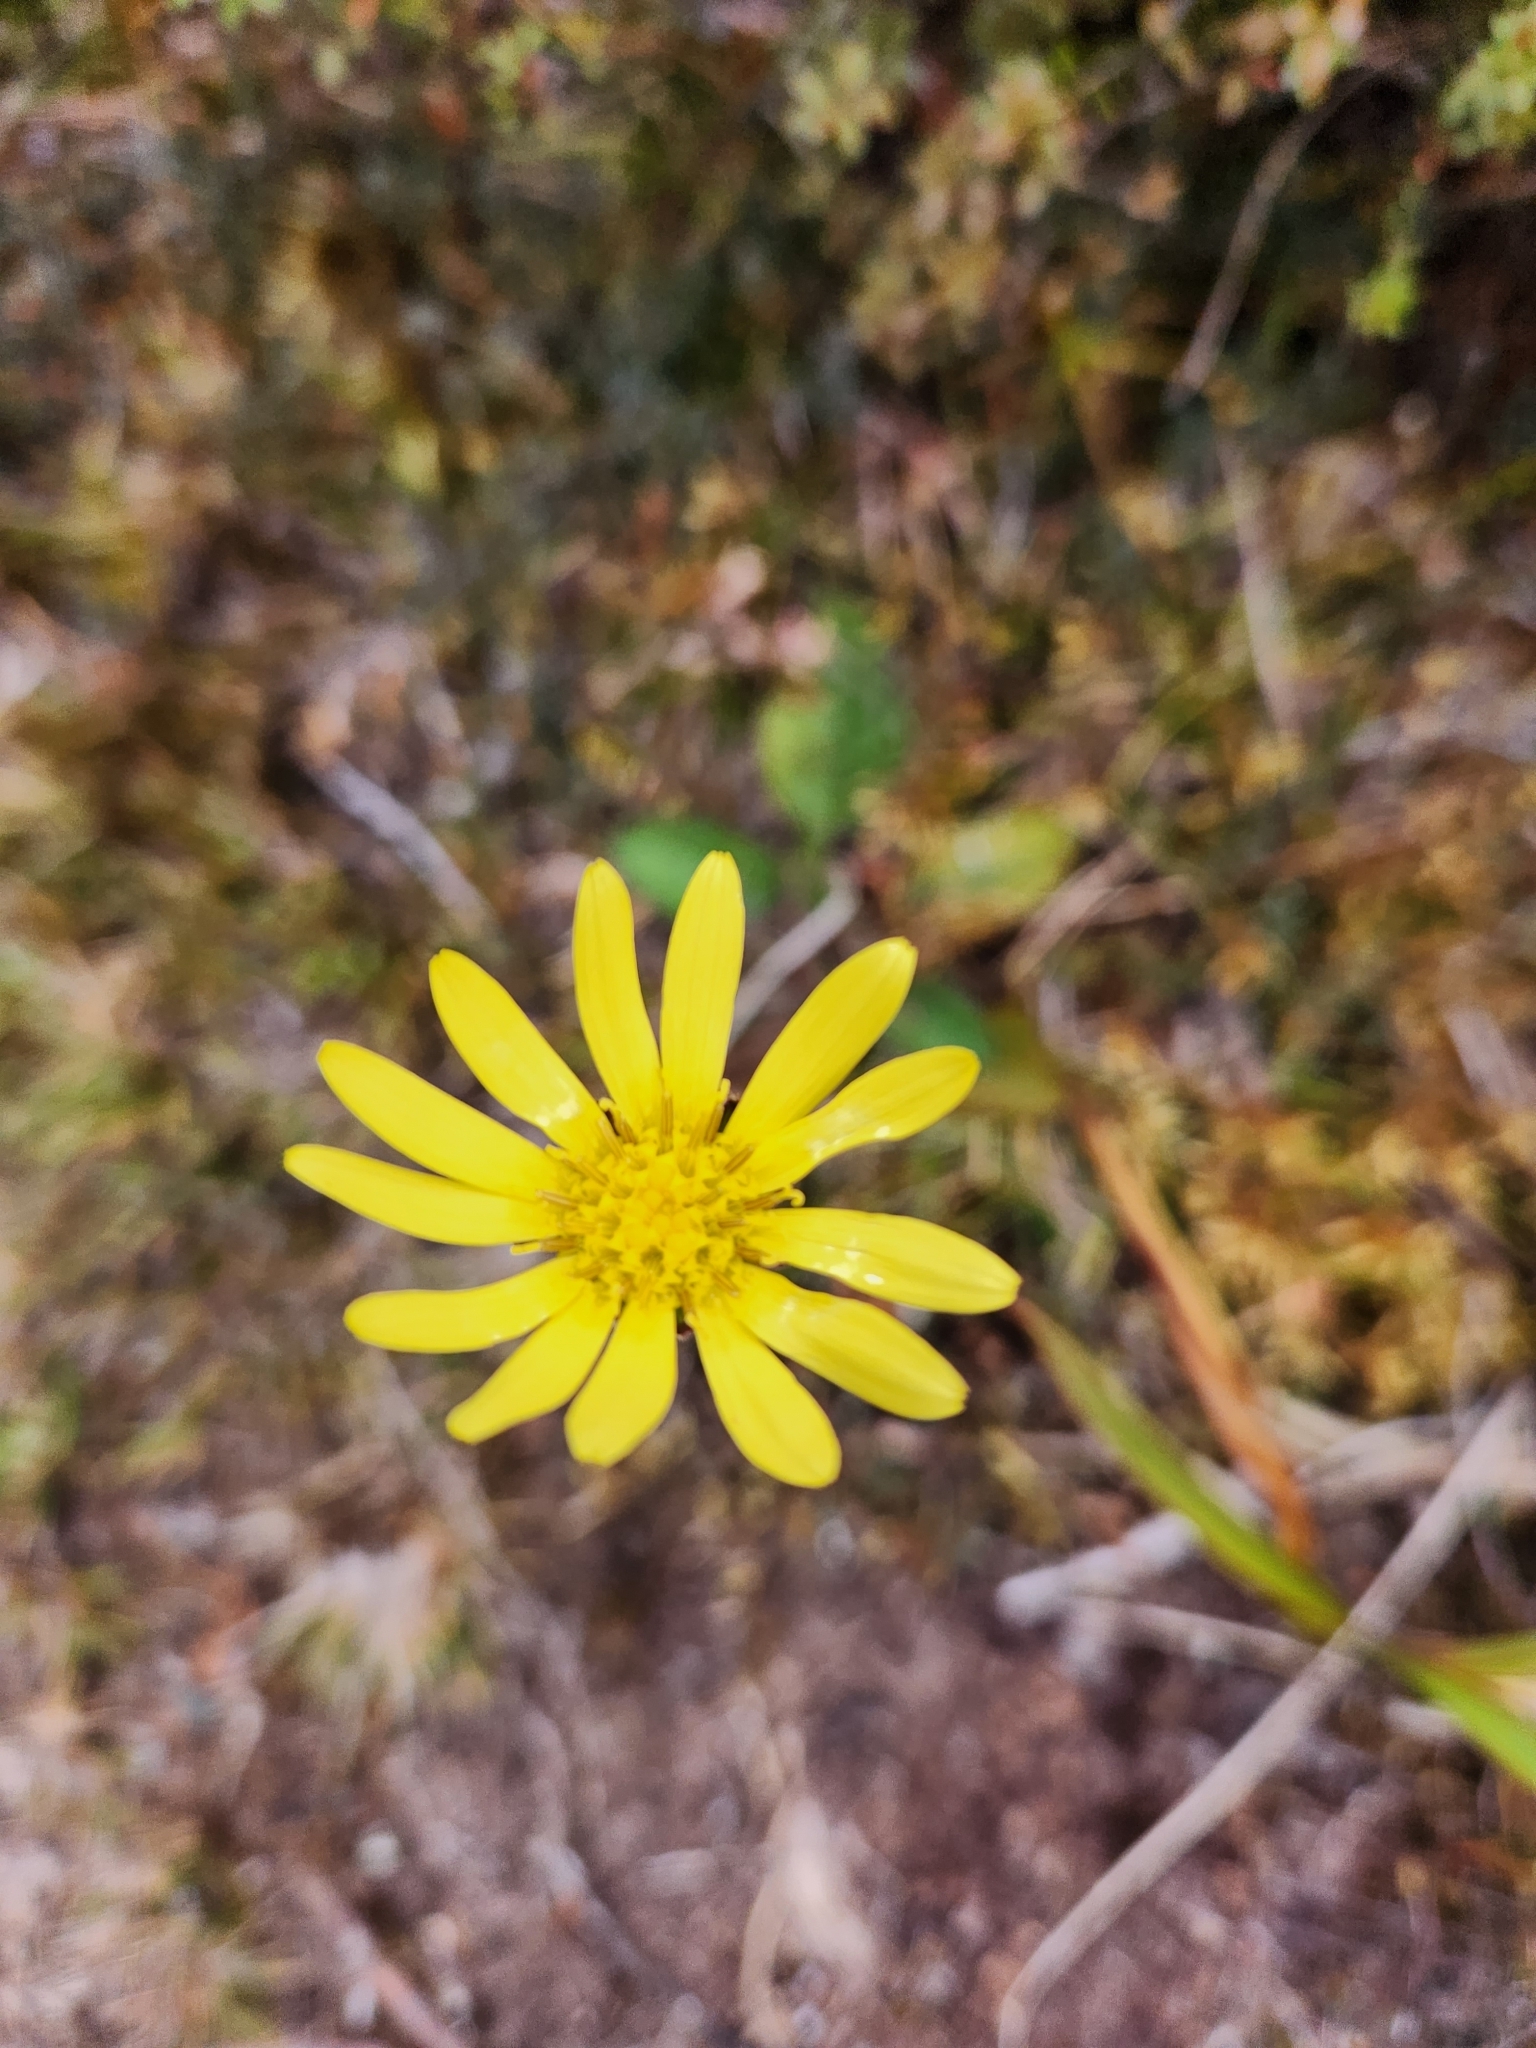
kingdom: Plantae
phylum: Tracheophyta
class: Magnoliopsida
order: Asterales
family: Asteraceae
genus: Brachyglottis
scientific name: Brachyglottis bellidioides
